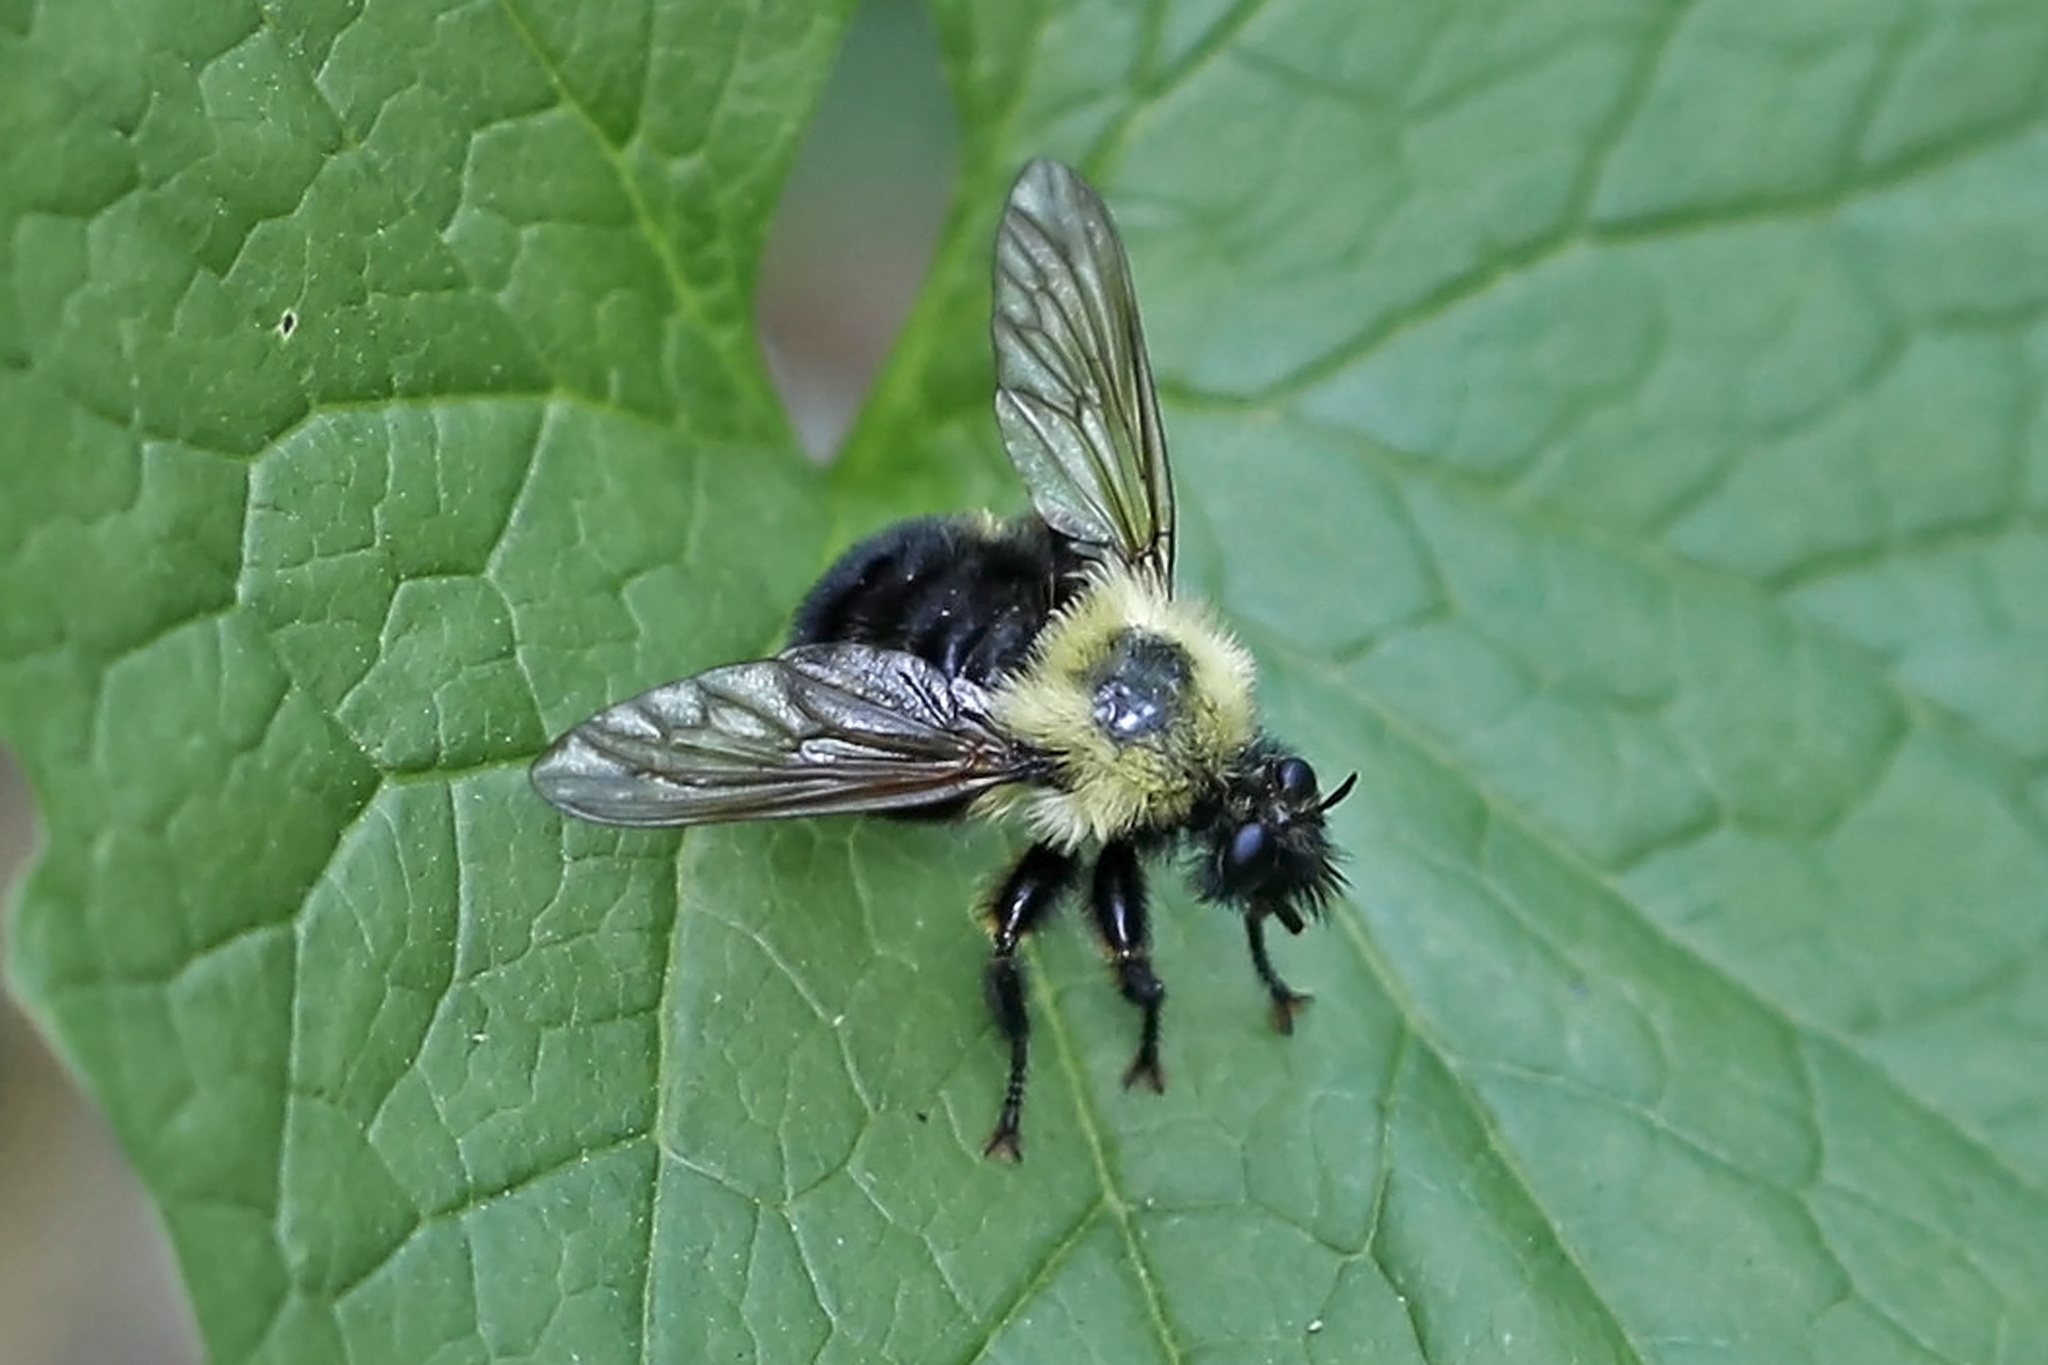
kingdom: Animalia
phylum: Arthropoda
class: Insecta
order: Diptera
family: Asilidae
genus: Laphria
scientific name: Laphria thoracica
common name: Bumble bee mimic robber fly
